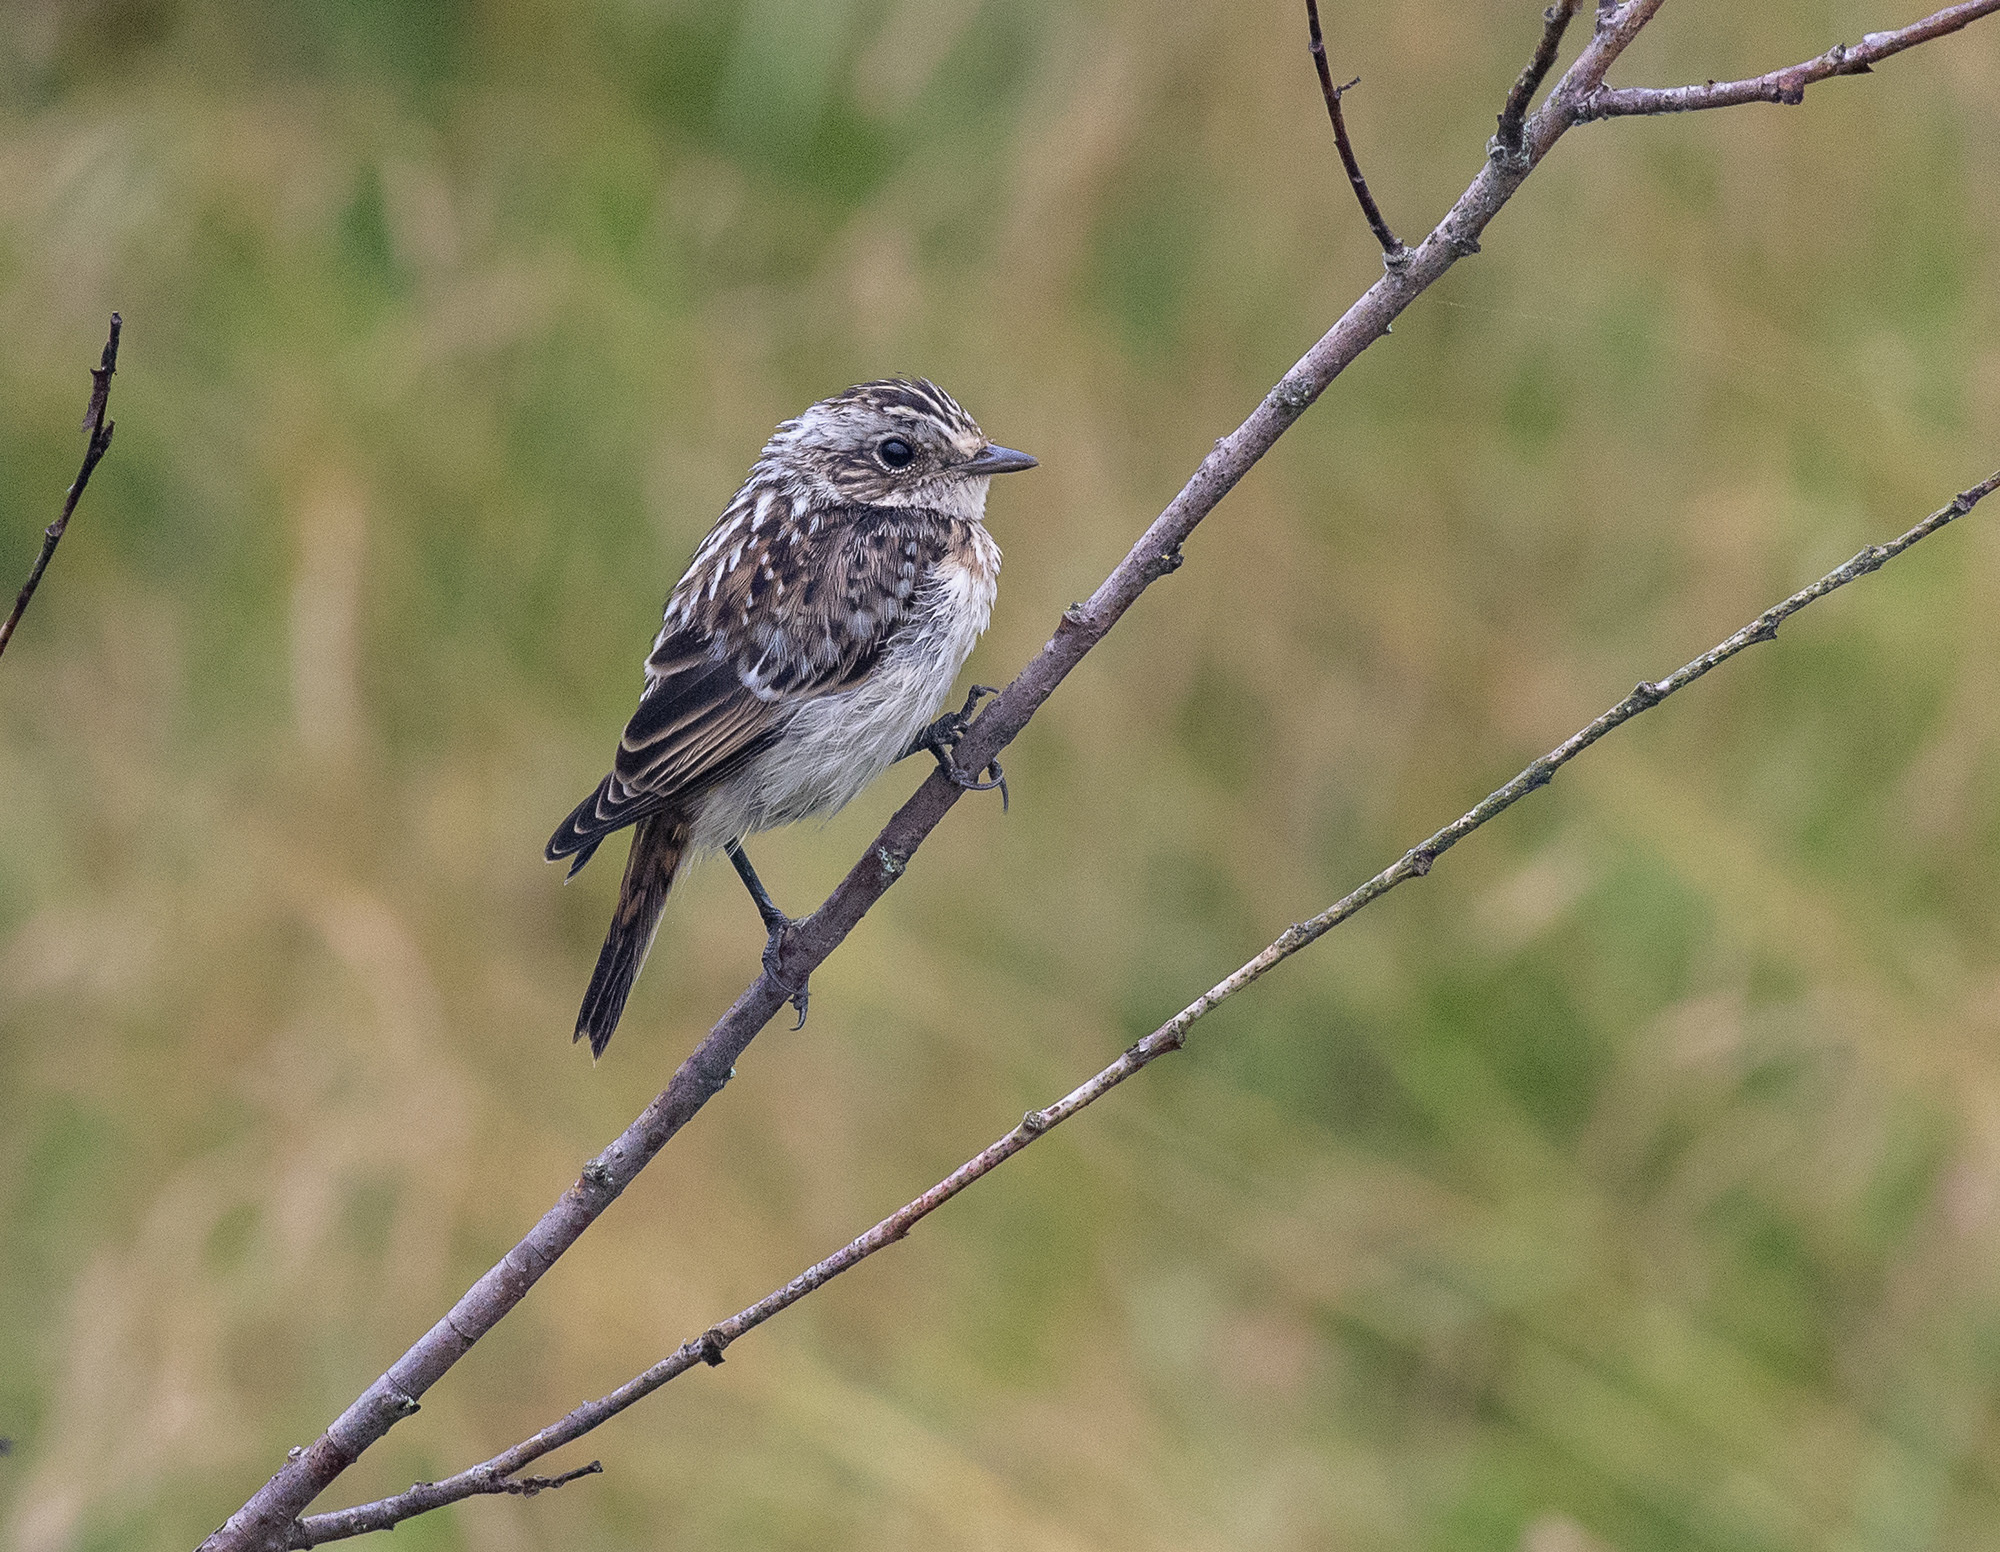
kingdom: Animalia
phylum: Chordata
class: Aves
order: Passeriformes
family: Muscicapidae
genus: Saxicola
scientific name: Saxicola rubetra
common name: Whinchat
